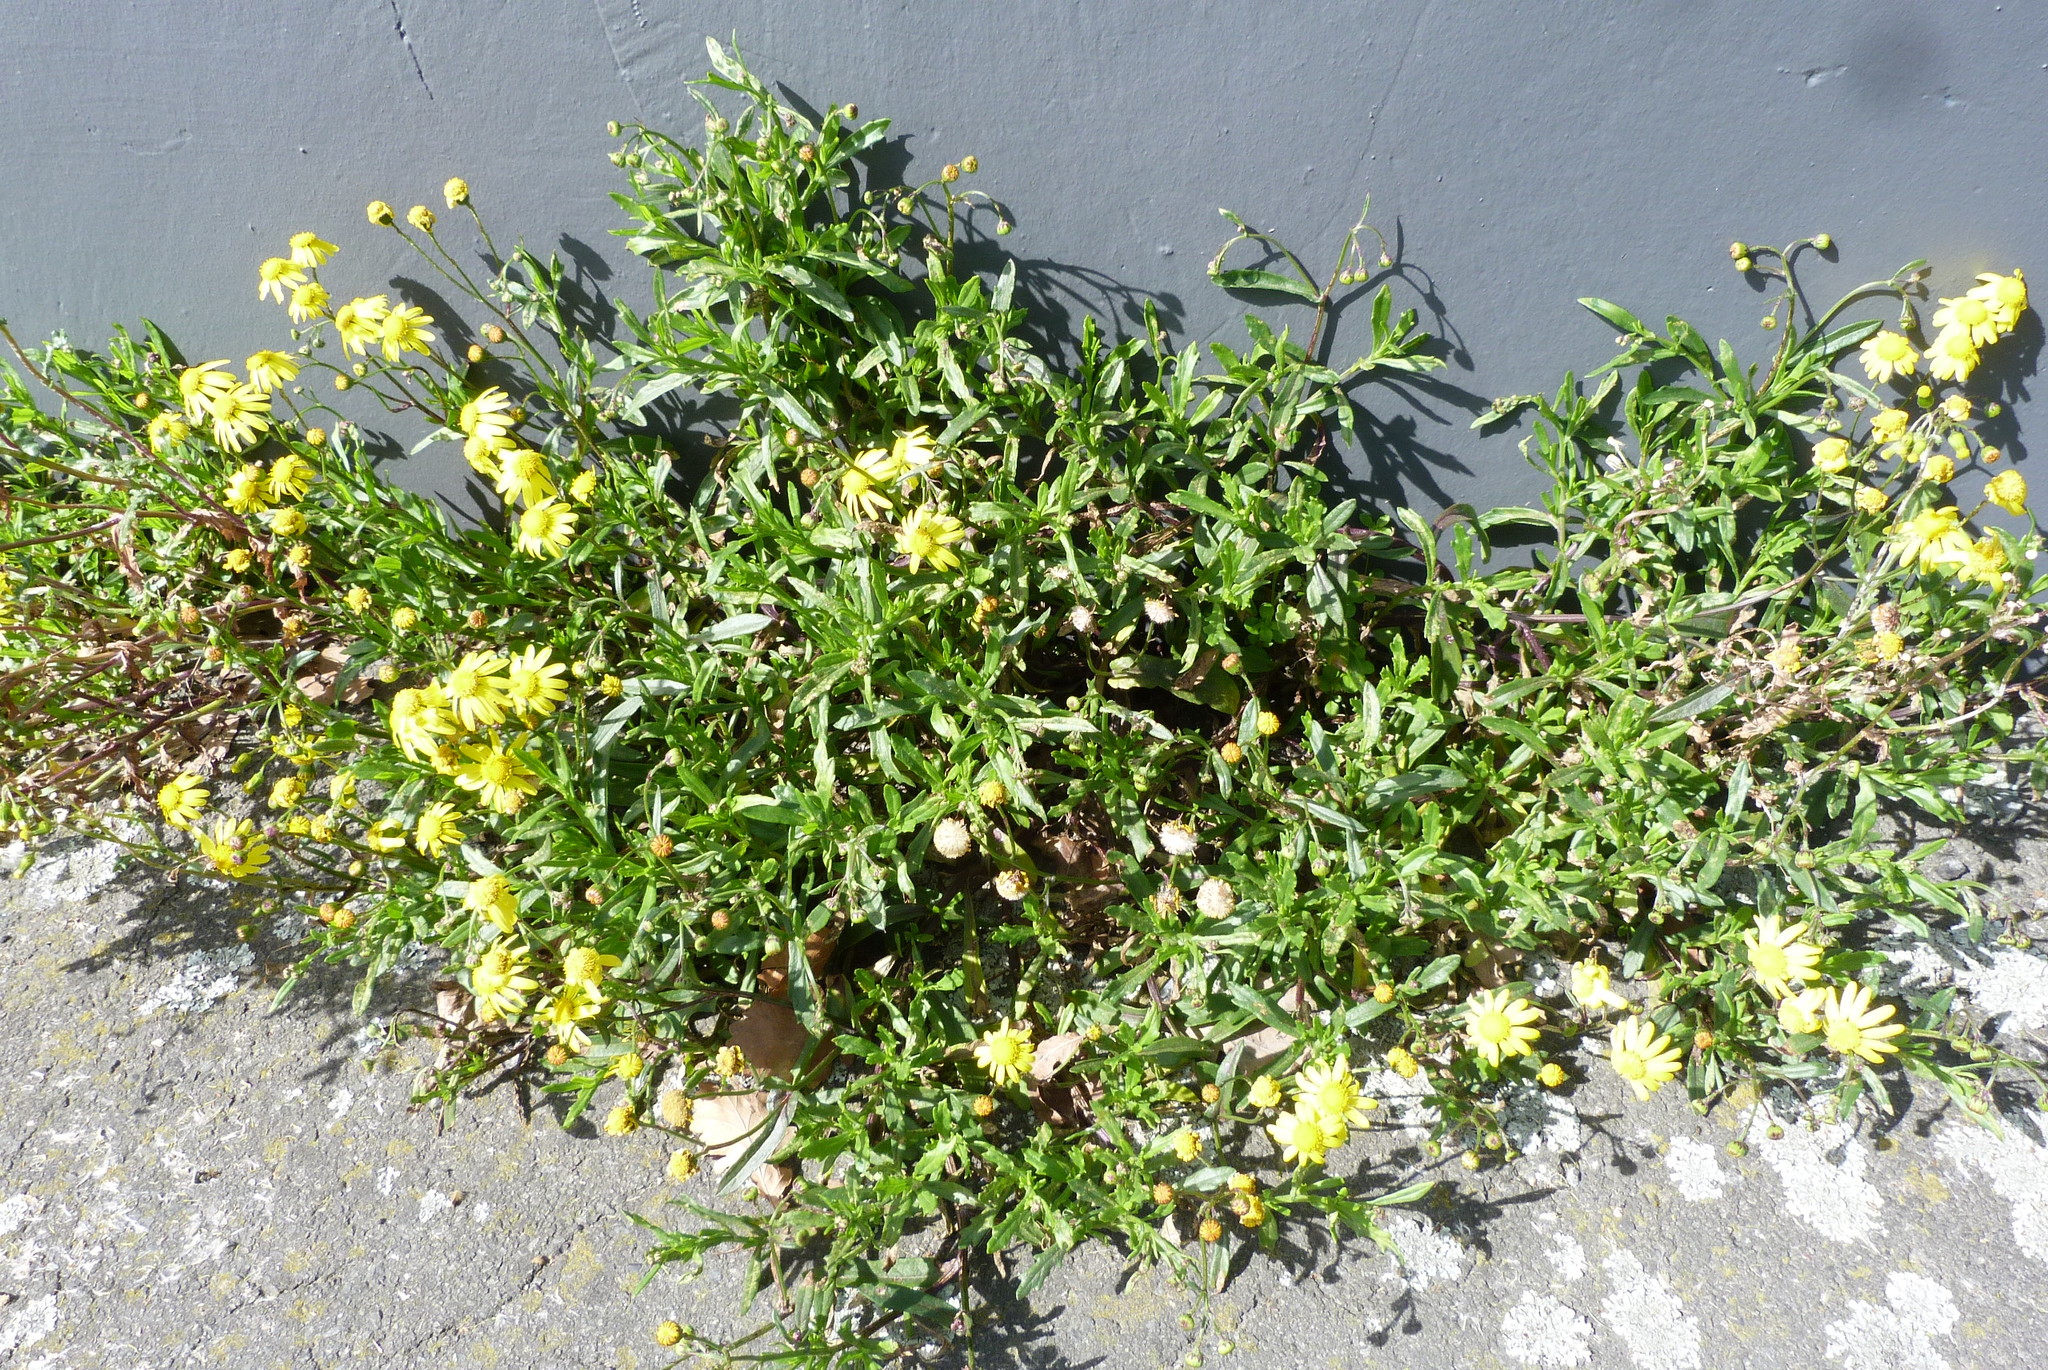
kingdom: Plantae
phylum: Tracheophyta
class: Magnoliopsida
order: Asterales
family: Asteraceae
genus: Senecio
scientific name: Senecio skirrhodon
